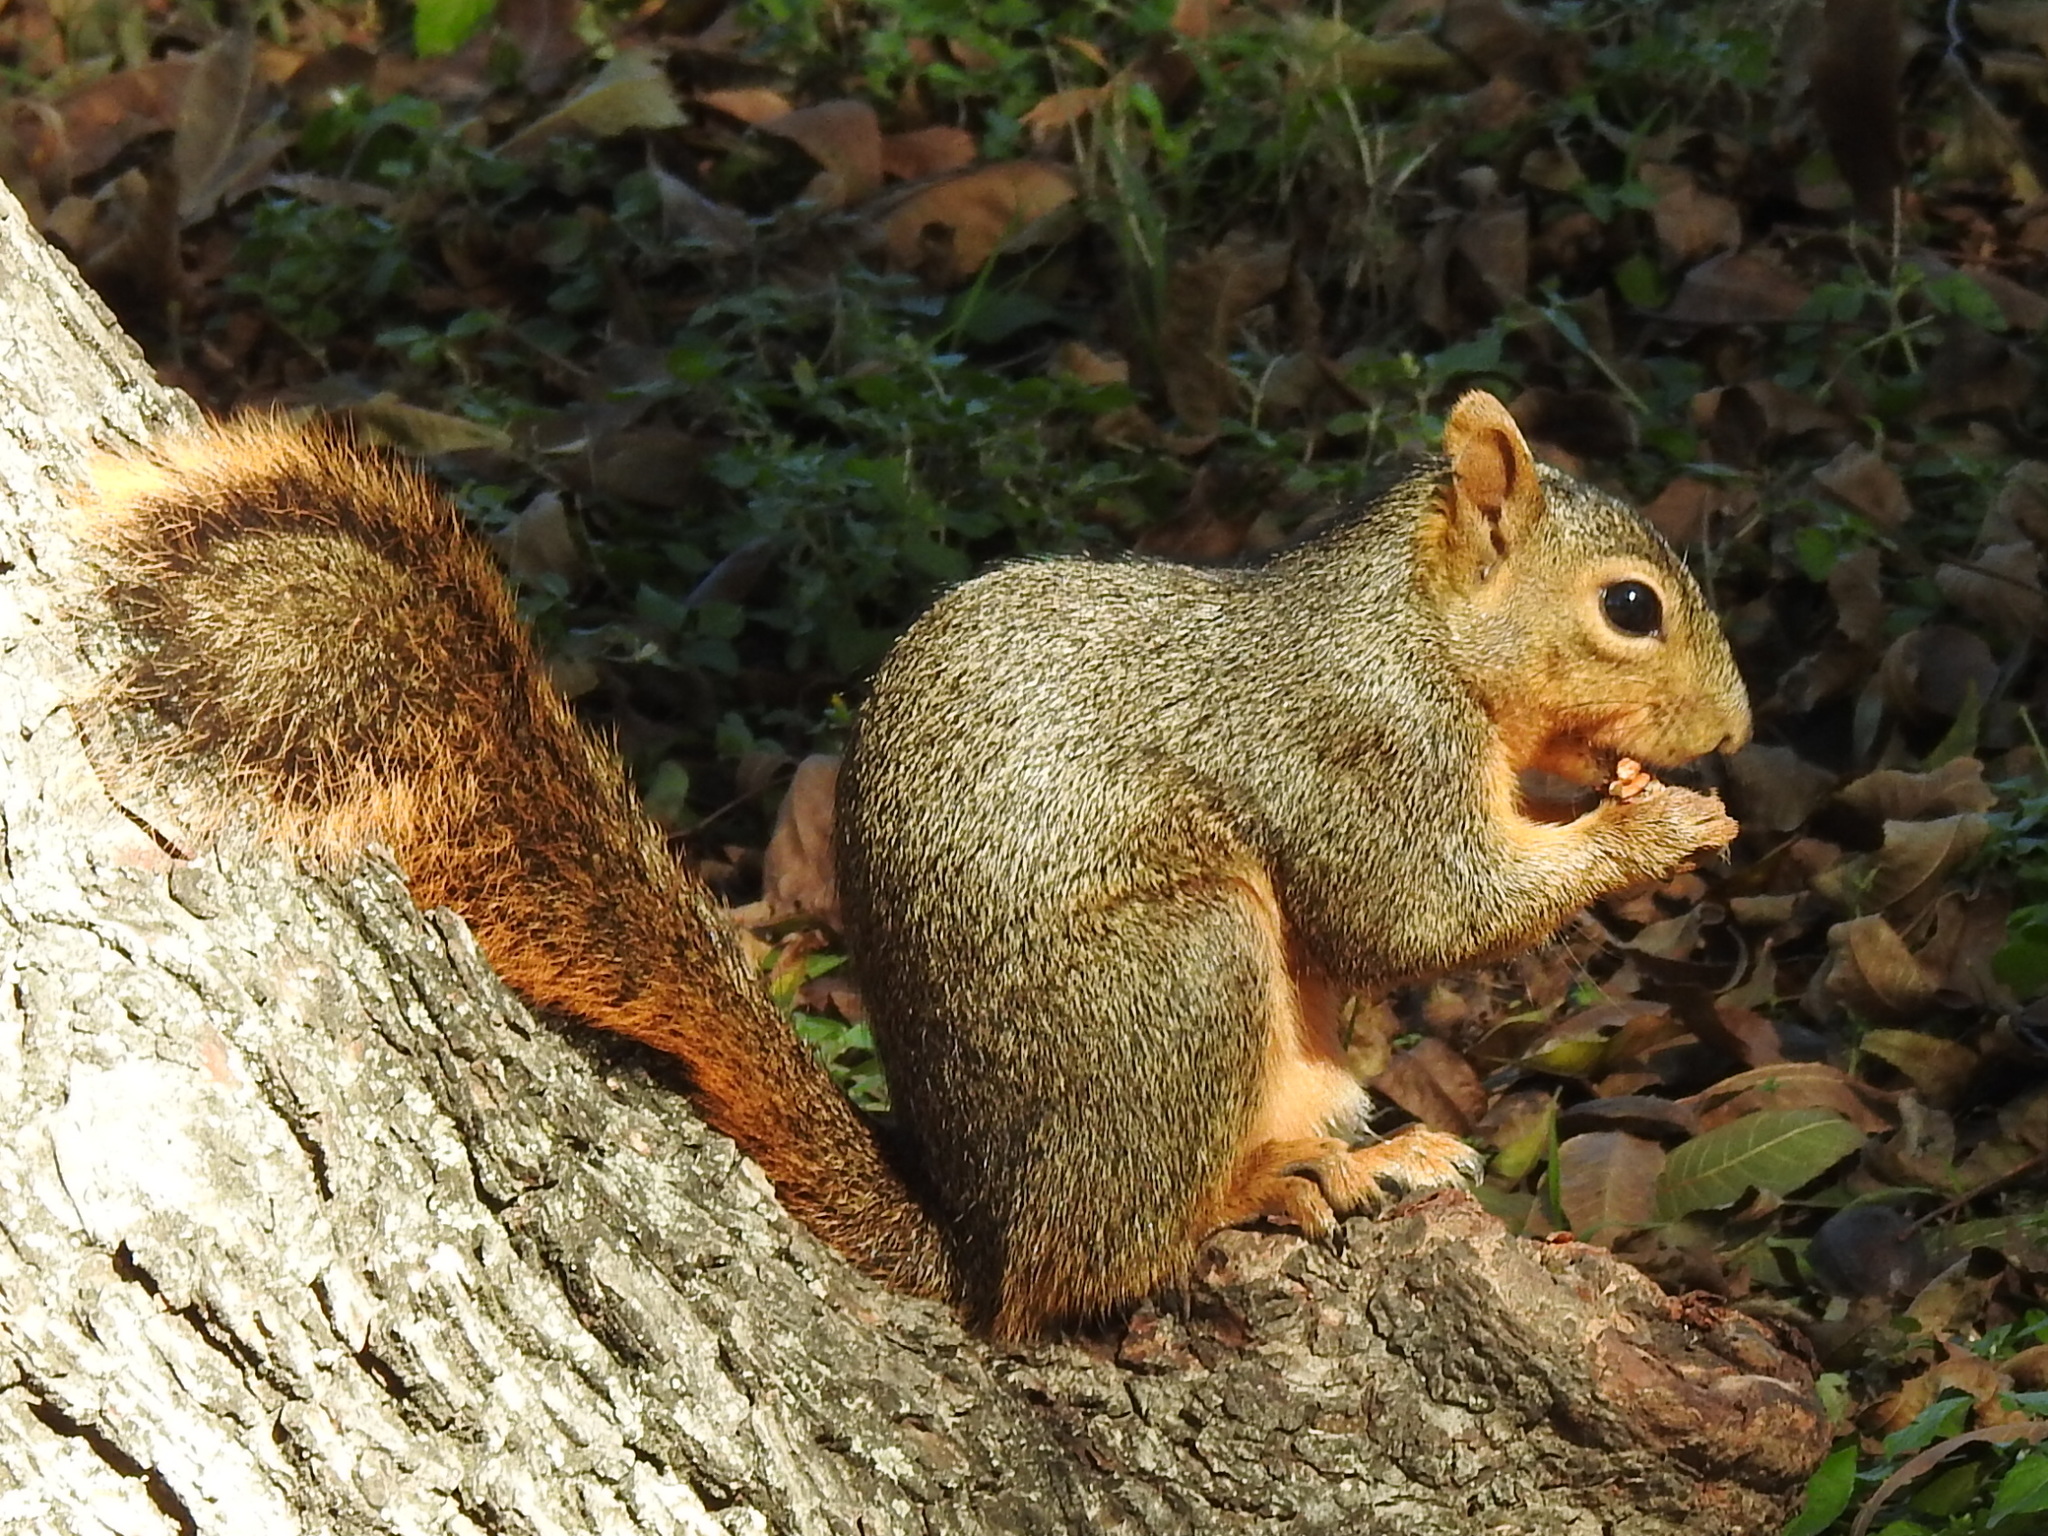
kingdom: Animalia
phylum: Chordata
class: Mammalia
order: Rodentia
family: Sciuridae
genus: Sciurus
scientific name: Sciurus niger
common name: Fox squirrel
